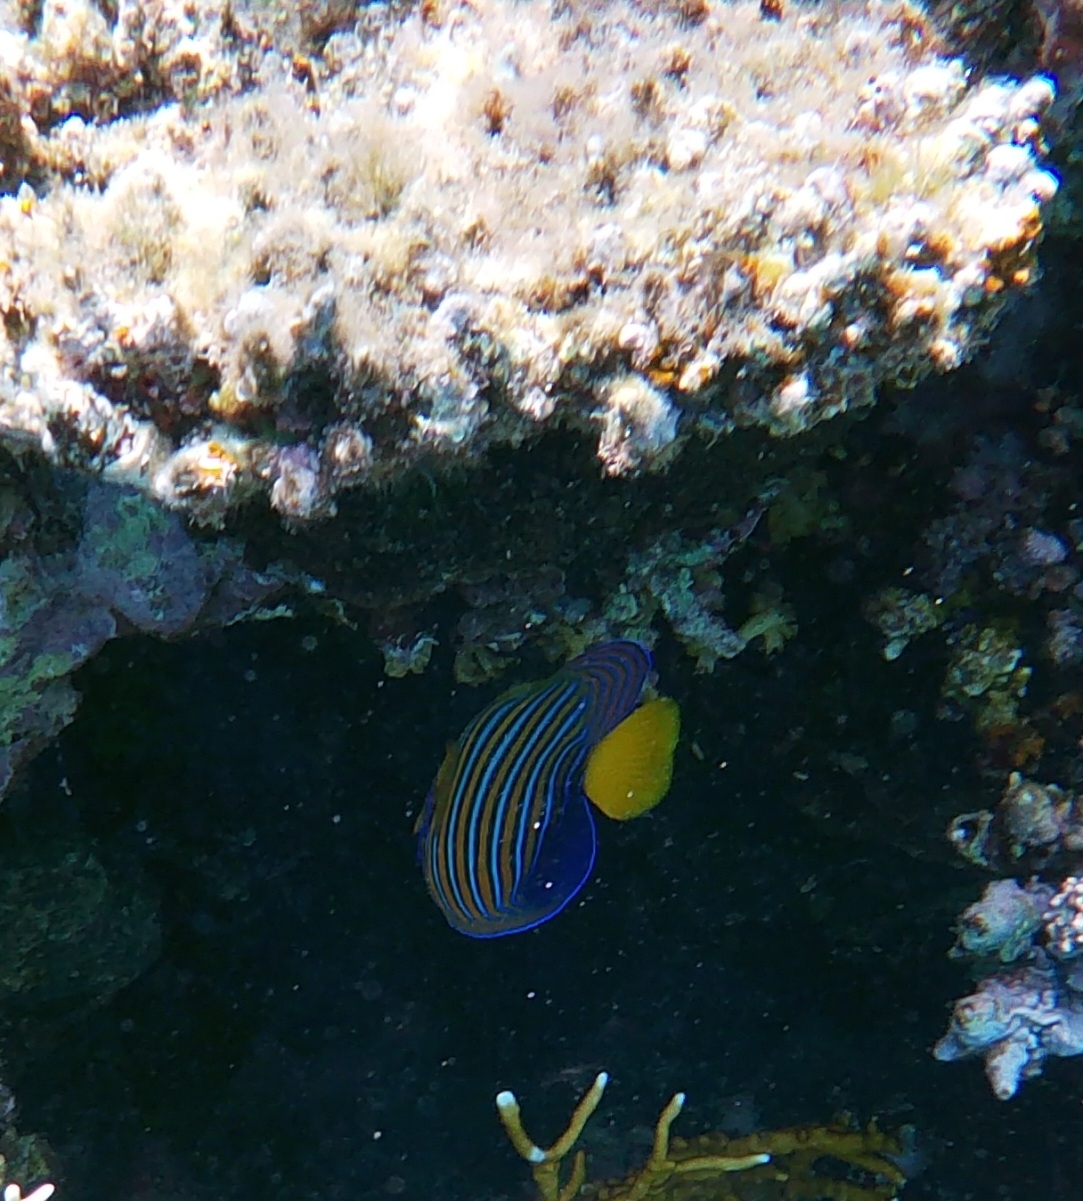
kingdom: Animalia
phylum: Chordata
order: Perciformes
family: Pomacanthidae
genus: Pygoplites
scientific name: Pygoplites diacanthus
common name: Regal angelfish
